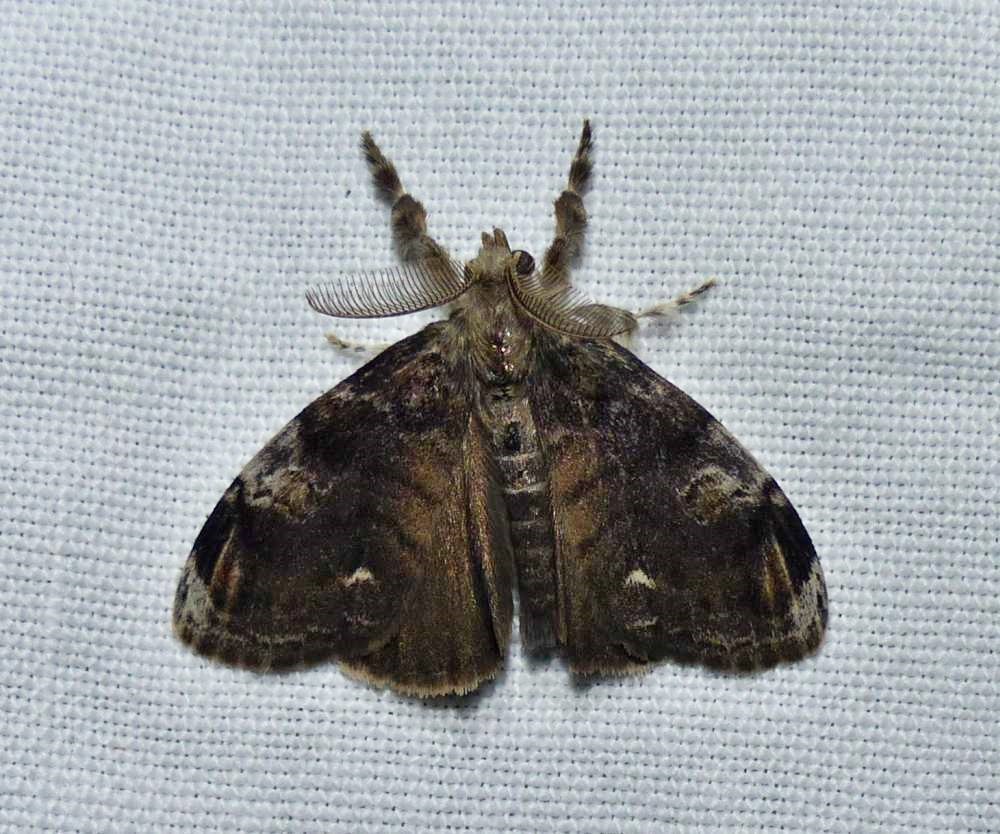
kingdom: Animalia
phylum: Arthropoda
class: Insecta
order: Lepidoptera
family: Erebidae
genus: Orgyia
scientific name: Orgyia definita
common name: Definite tussock moth
